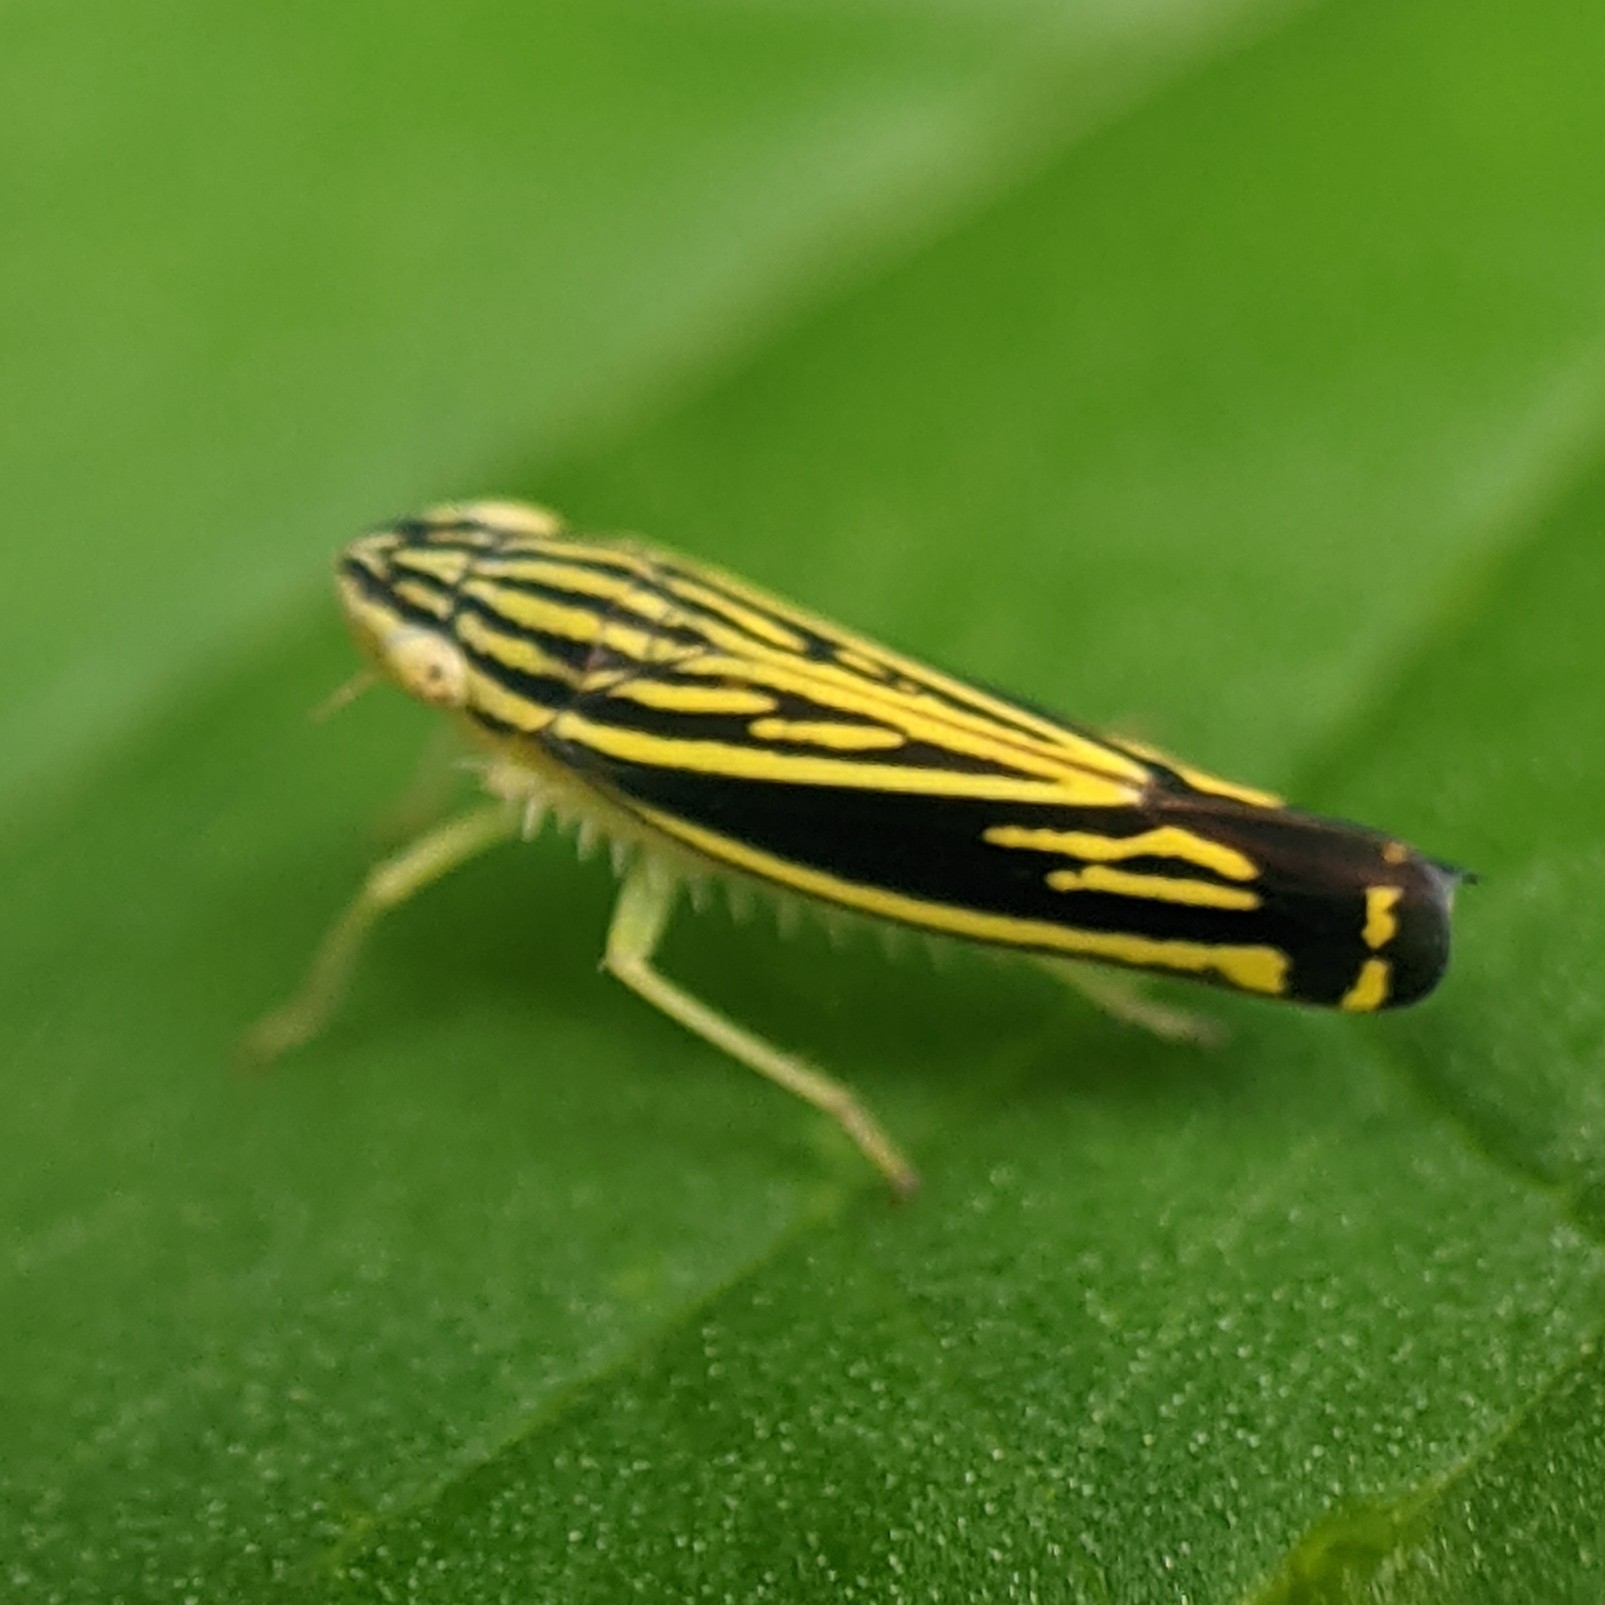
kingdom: Animalia
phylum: Arthropoda
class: Insecta
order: Hemiptera
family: Cicadellidae
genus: Sibovia
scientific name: Sibovia occatoria
